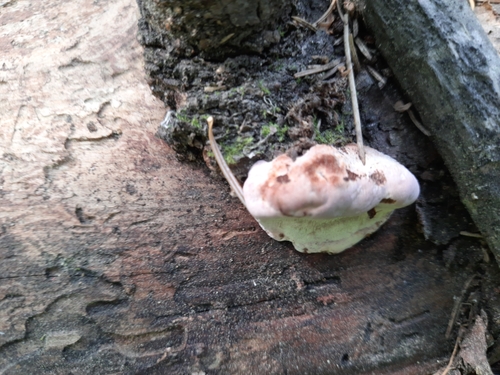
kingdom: Fungi
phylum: Basidiomycota
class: Agaricomycetes
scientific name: Agaricomycetes
